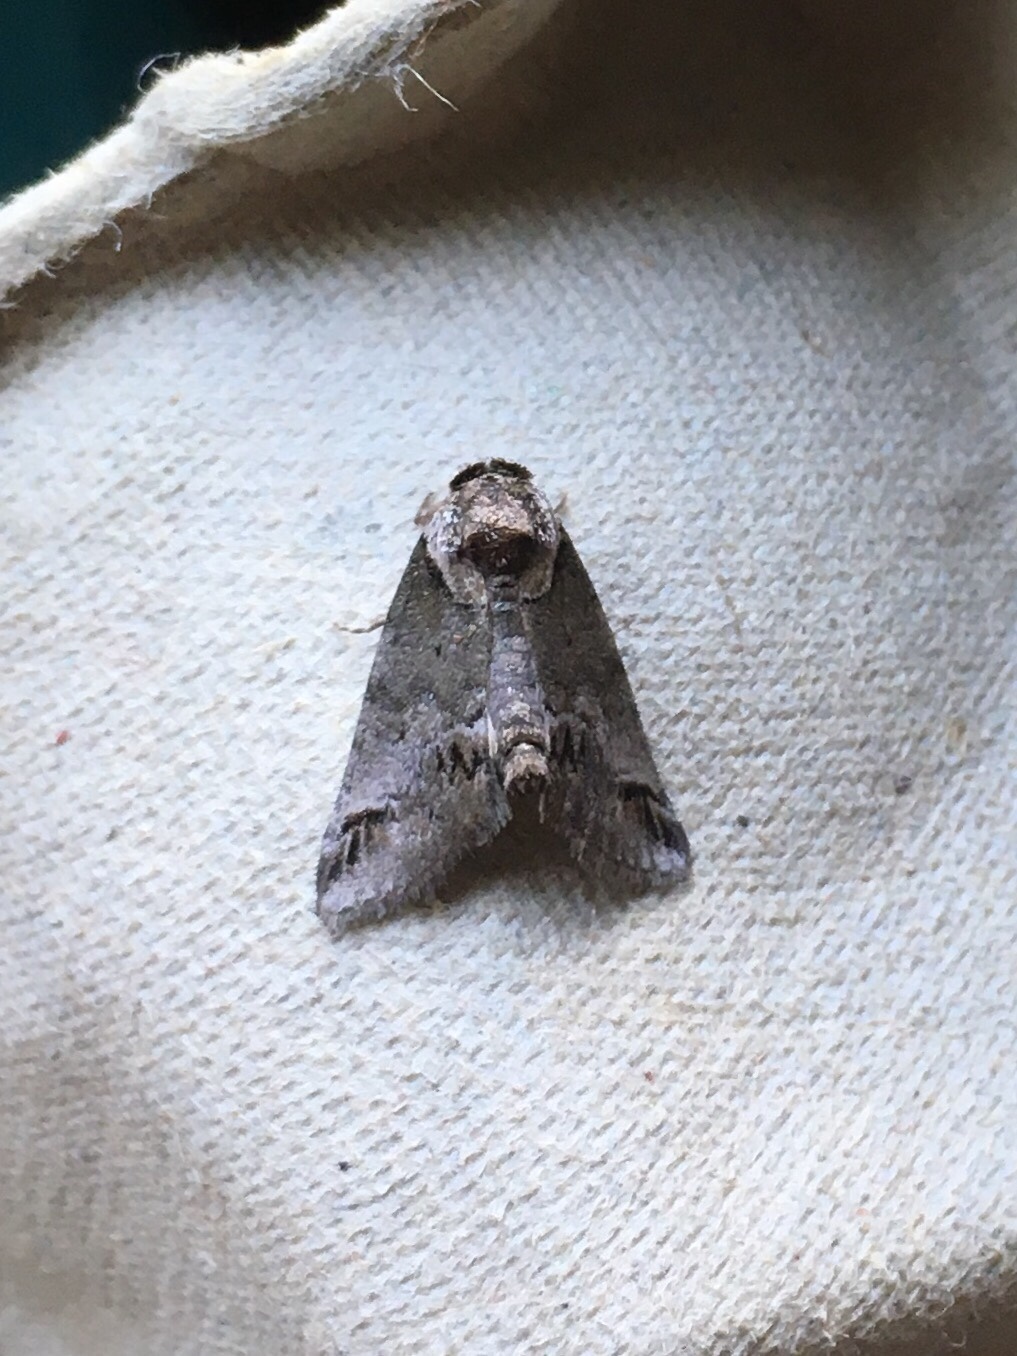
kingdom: Animalia
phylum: Arthropoda
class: Insecta
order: Lepidoptera
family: Nolidae
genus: Baileya
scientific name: Baileya australis
